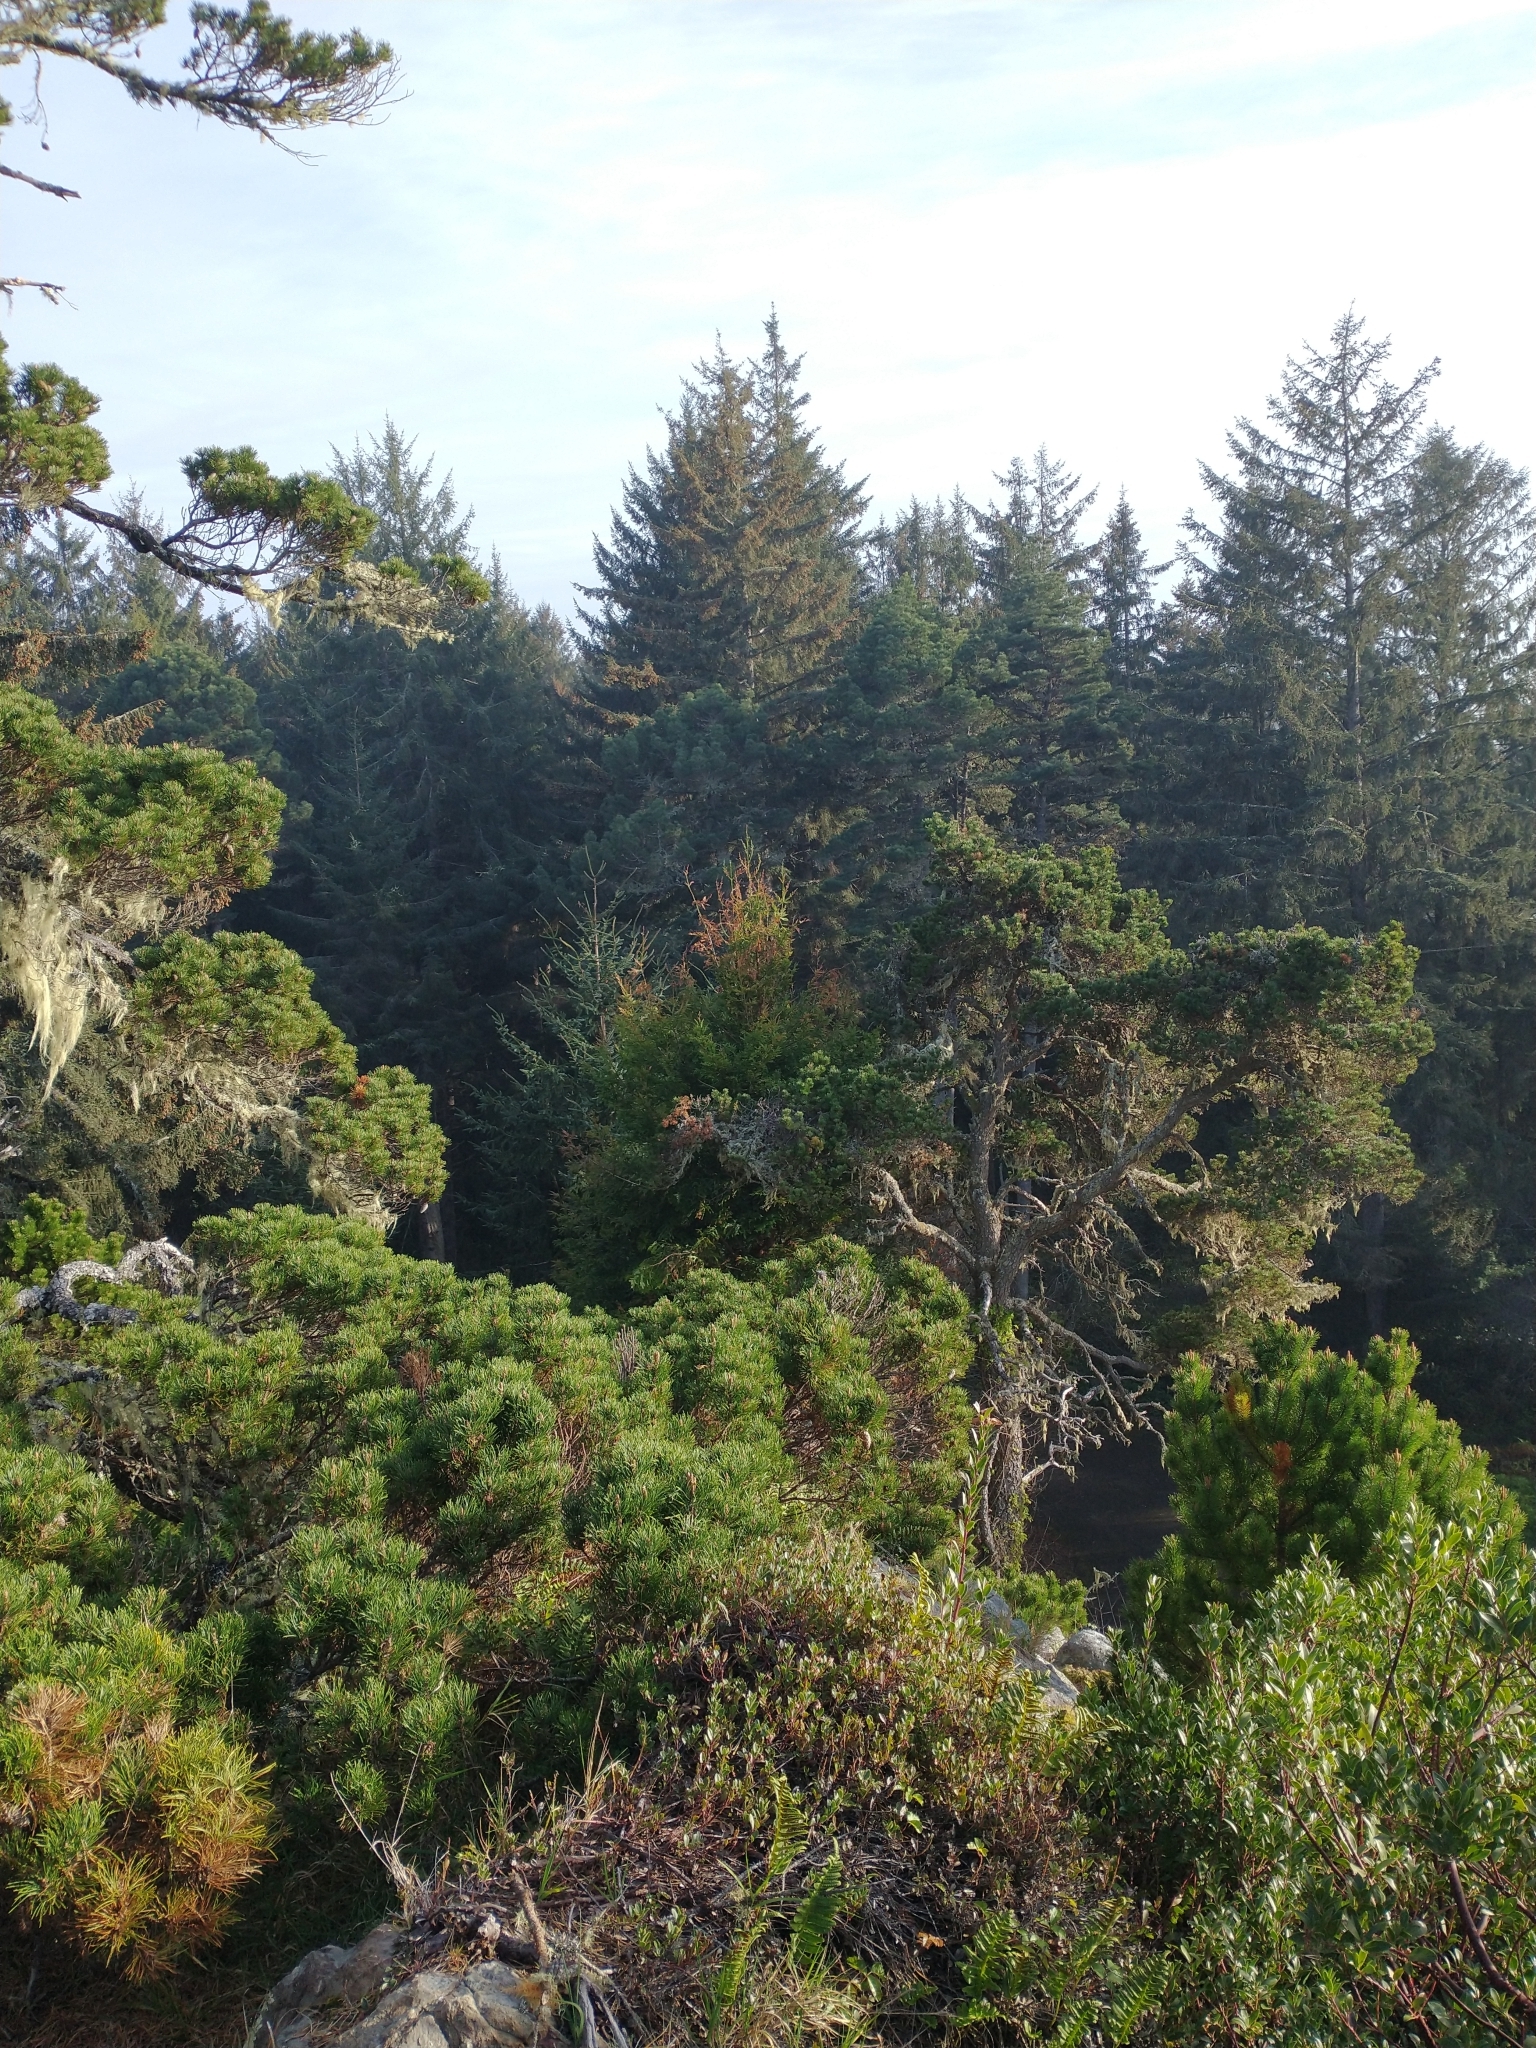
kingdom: Plantae
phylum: Tracheophyta
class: Pinopsida
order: Pinales
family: Pinaceae
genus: Pinus
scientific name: Pinus contorta
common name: Lodgepole pine
